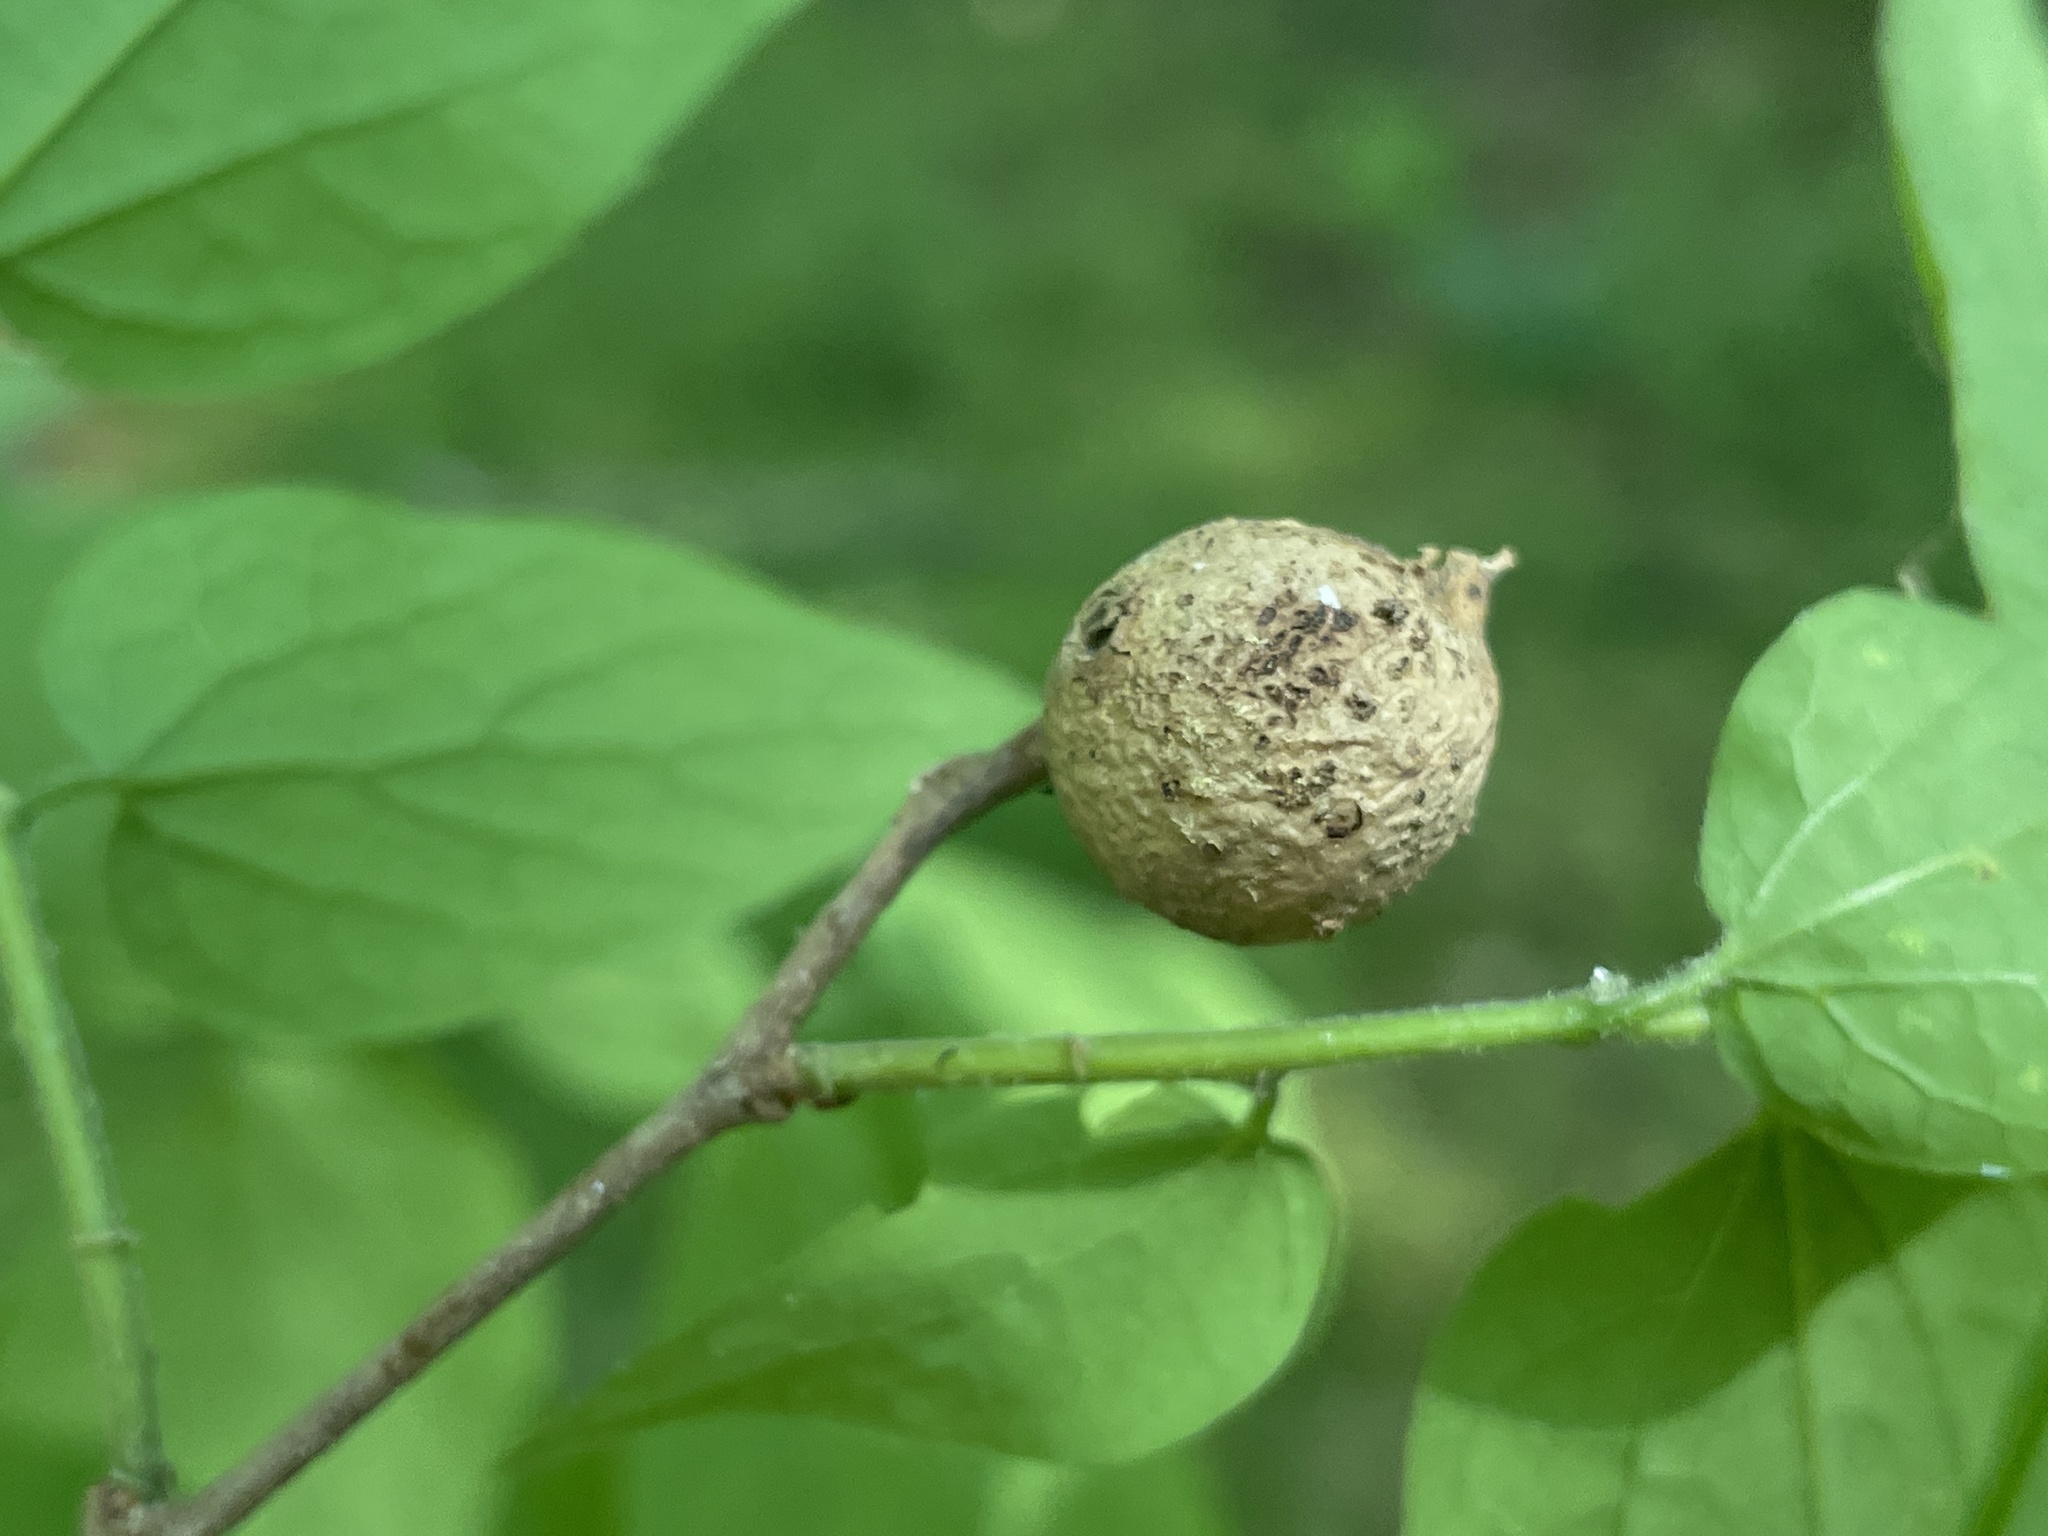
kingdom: Animalia
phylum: Arthropoda
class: Insecta
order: Hemiptera
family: Aphalaridae
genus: Pachypsylla
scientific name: Pachypsylla venusta
